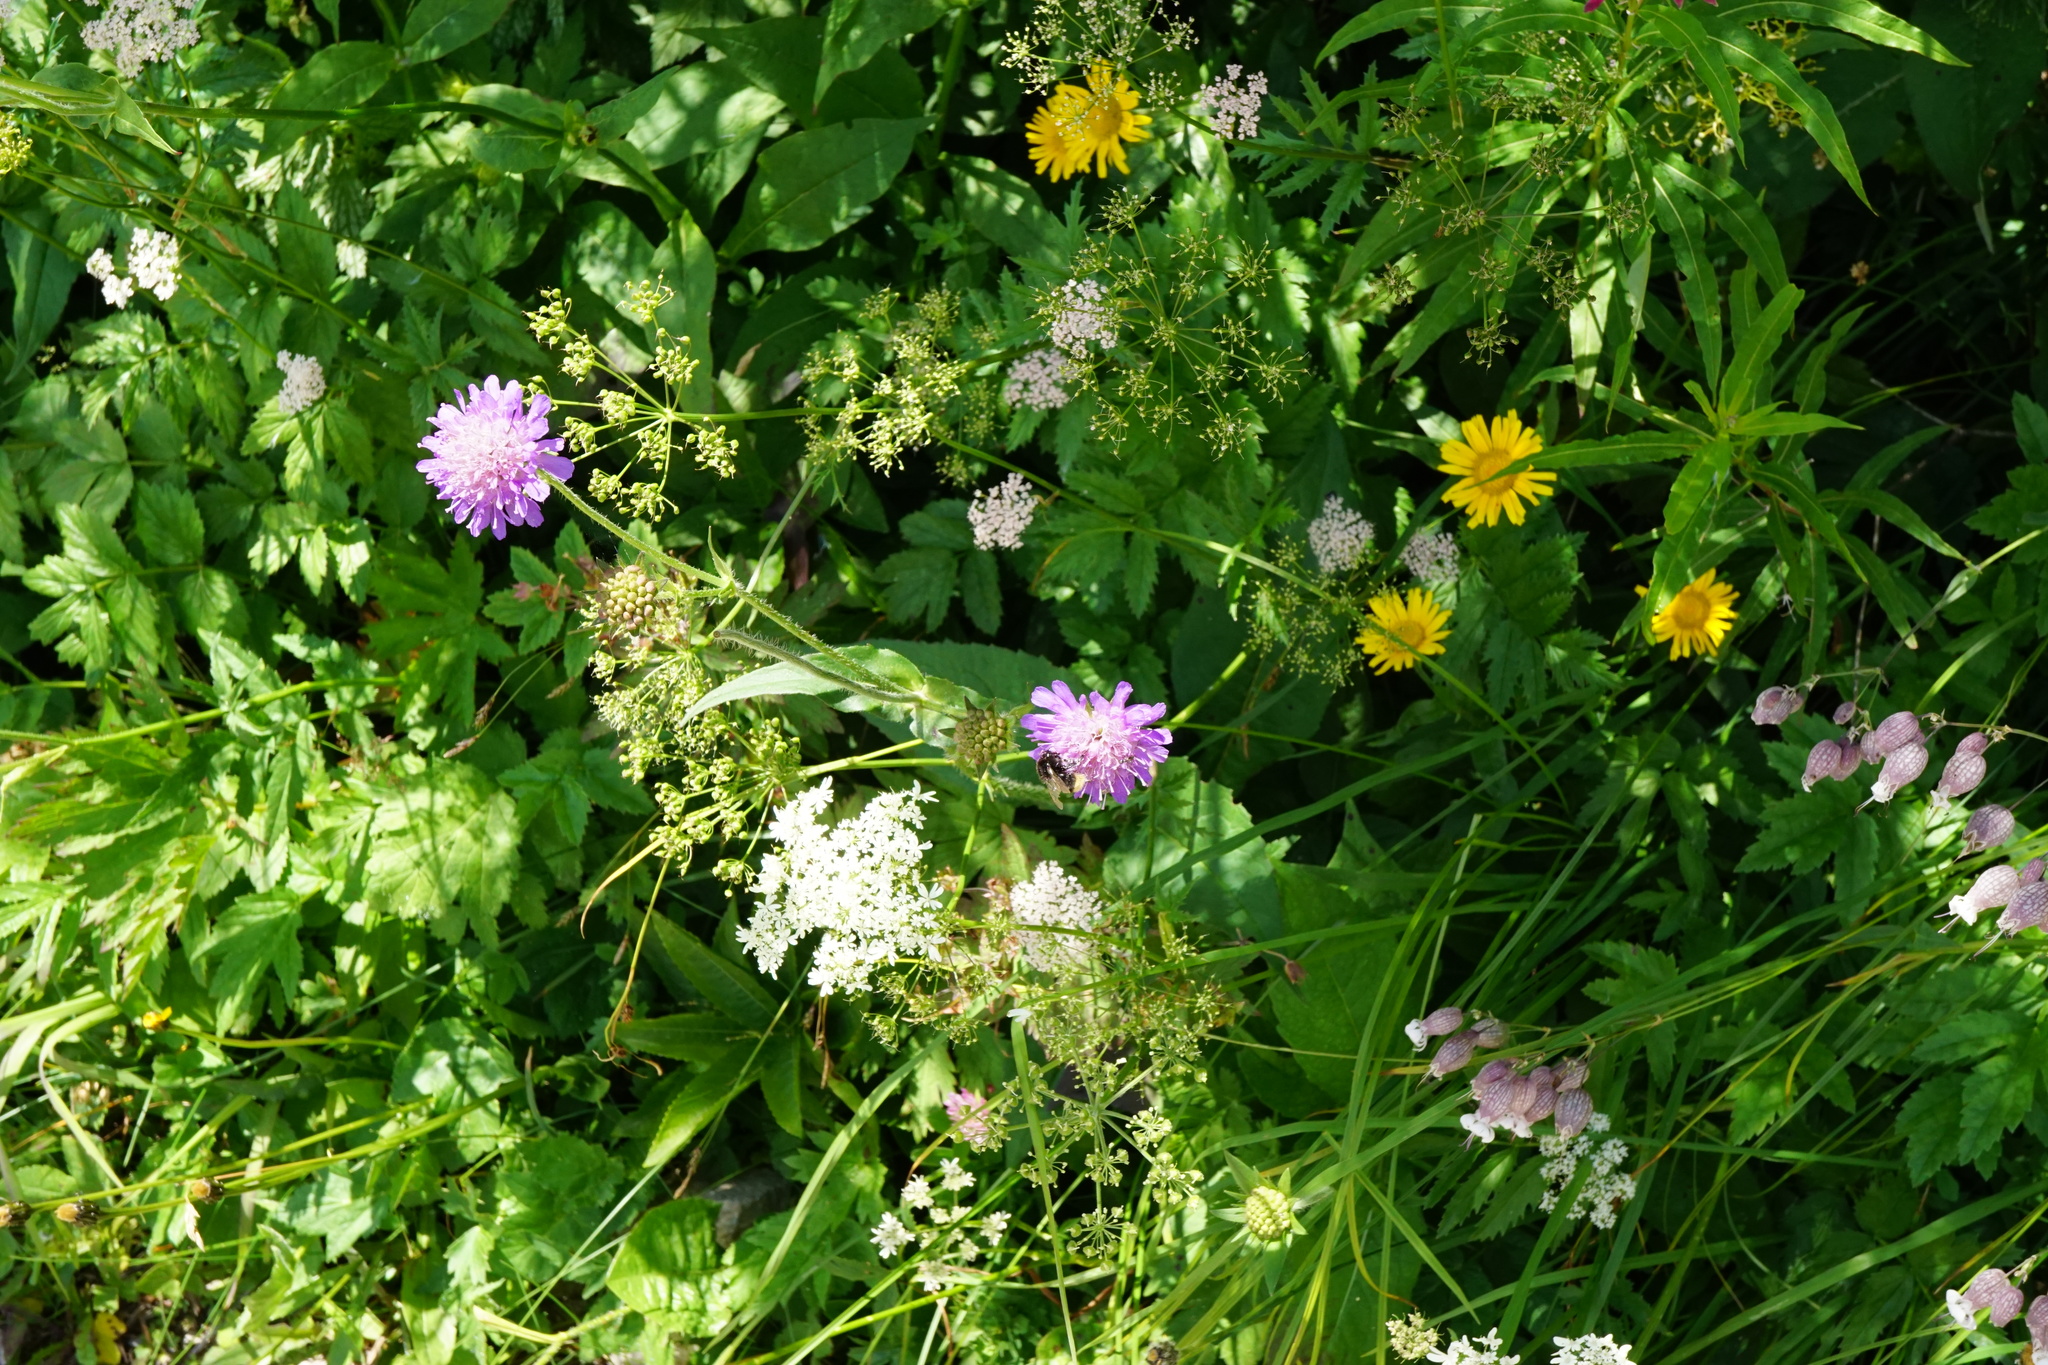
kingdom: Plantae
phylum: Tracheophyta
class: Magnoliopsida
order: Dipsacales
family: Caprifoliaceae
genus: Knautia
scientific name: Knautia dipsacifolia
